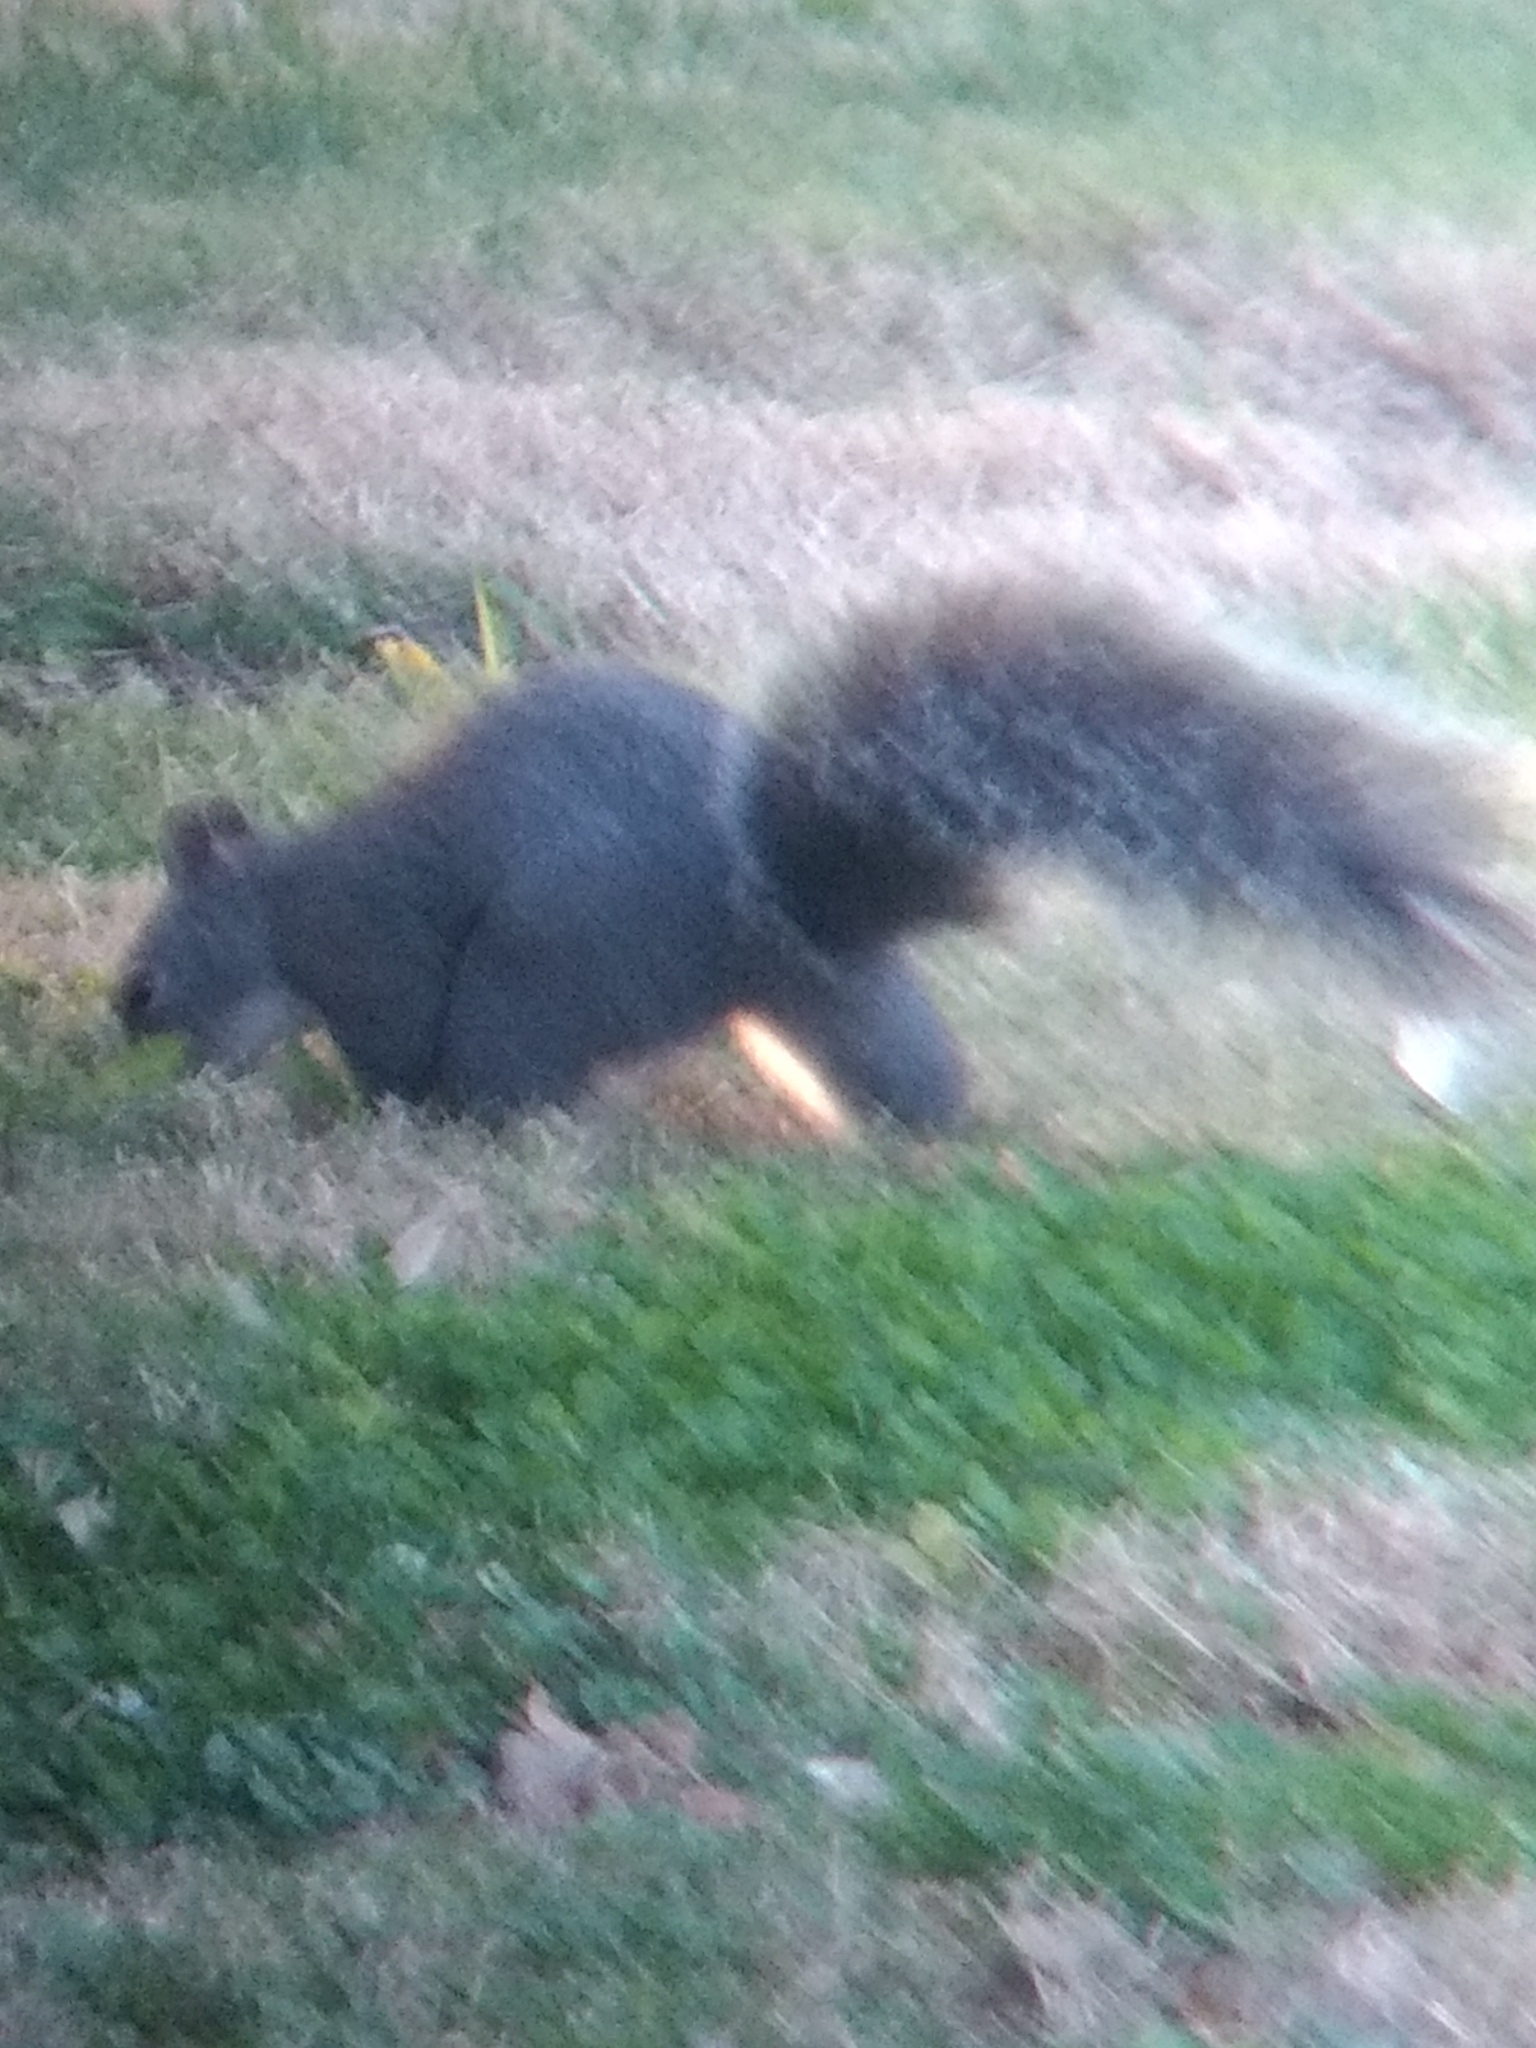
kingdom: Animalia
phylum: Chordata
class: Mammalia
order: Rodentia
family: Sciuridae
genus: Sciurus
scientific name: Sciurus griseus
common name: Western gray squirrel
